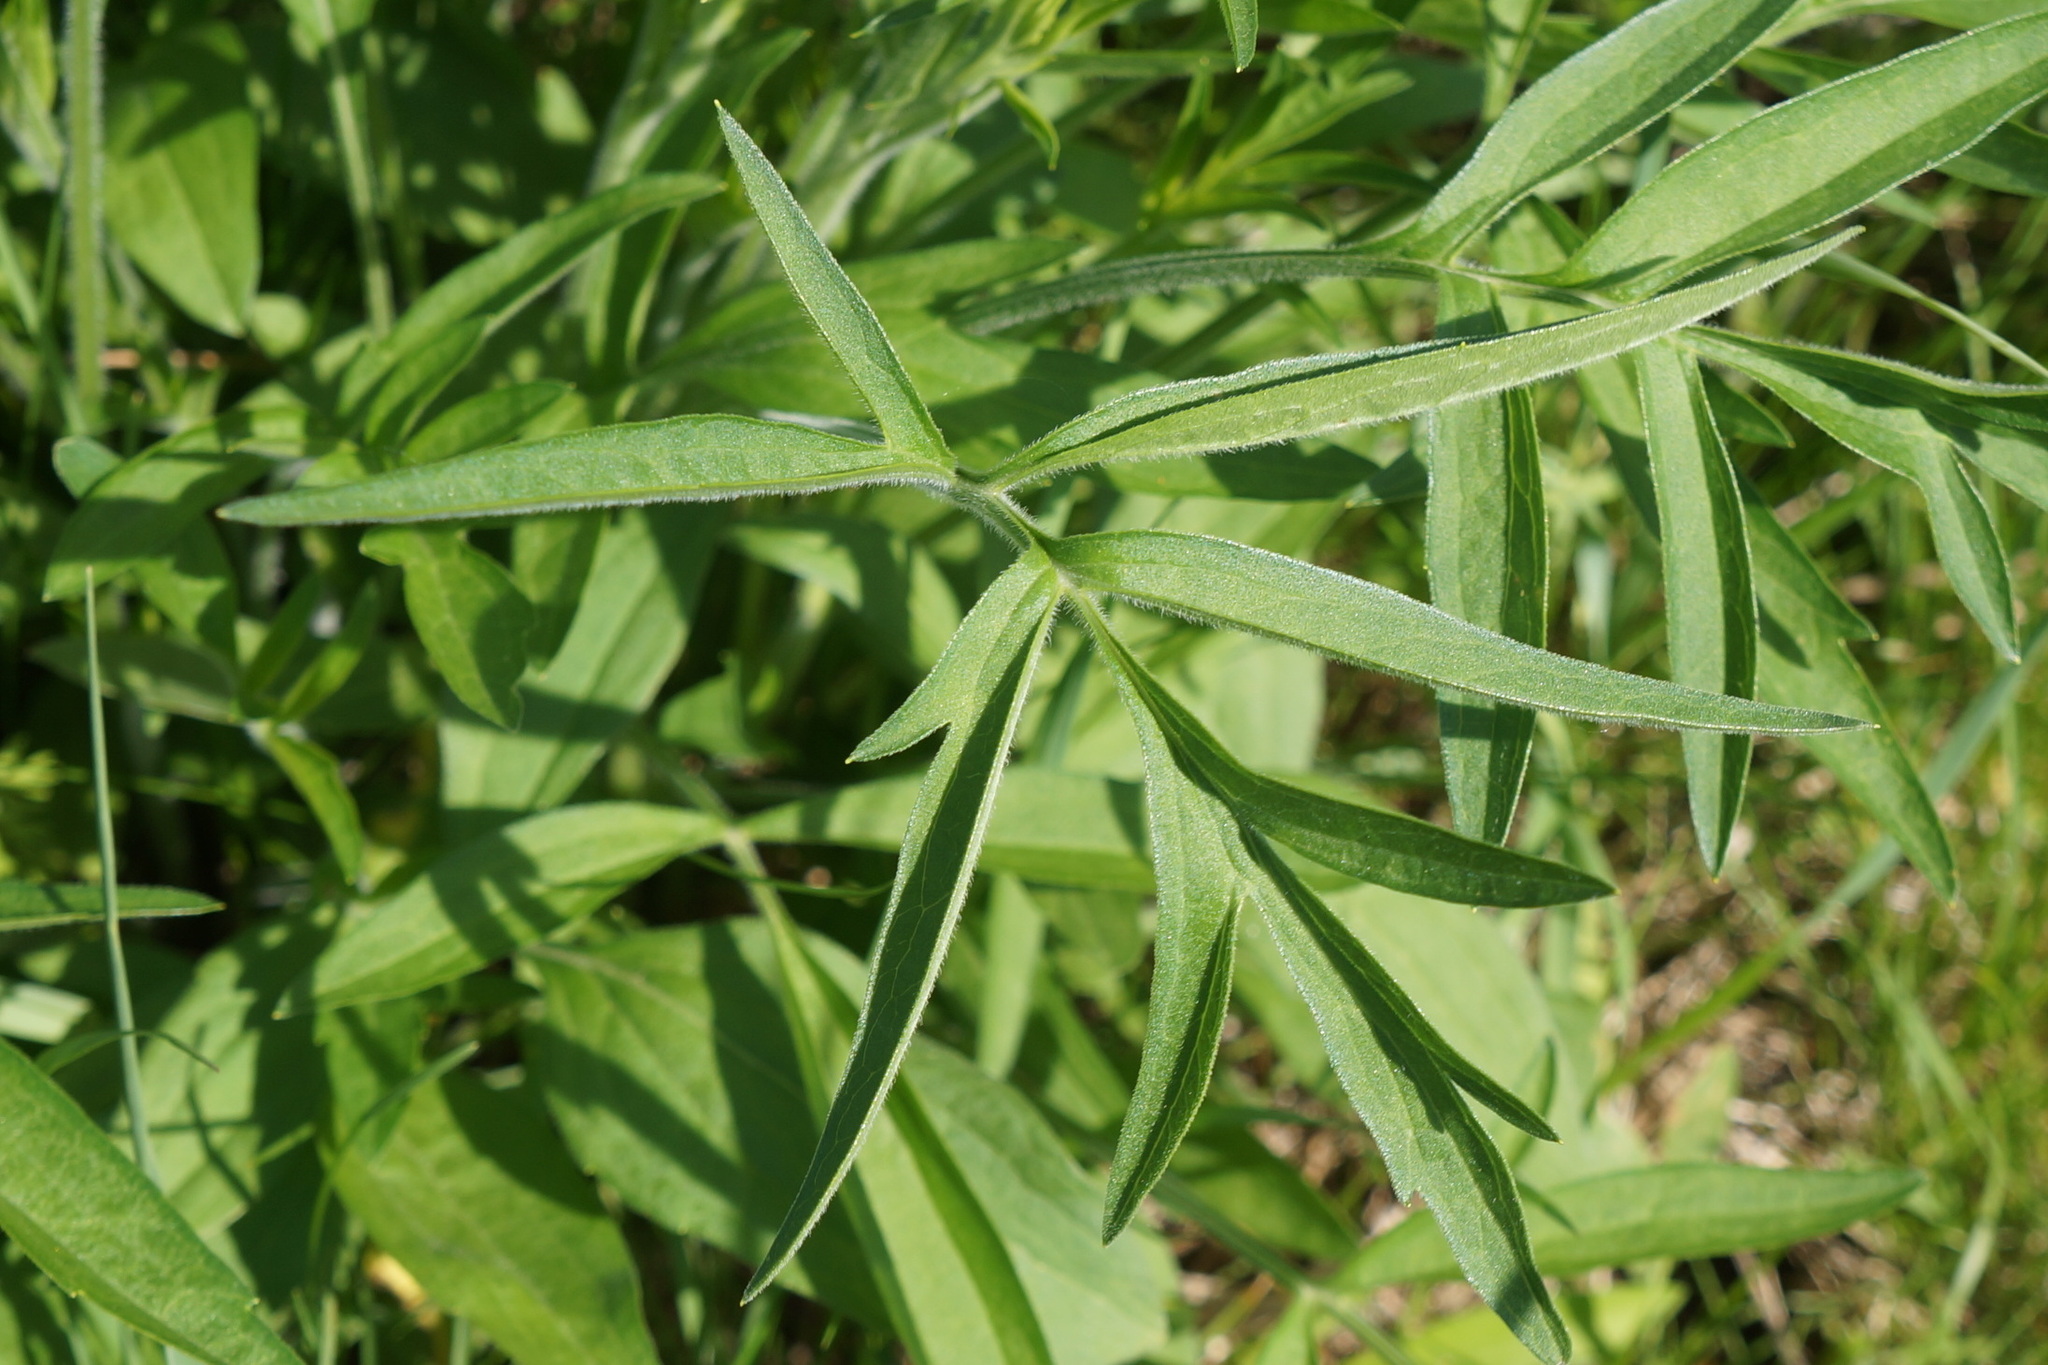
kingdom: Plantae
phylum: Tracheophyta
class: Magnoliopsida
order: Asterales
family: Asteraceae
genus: Ratibida
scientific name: Ratibida pinnata
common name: Drooping prairie-coneflower
